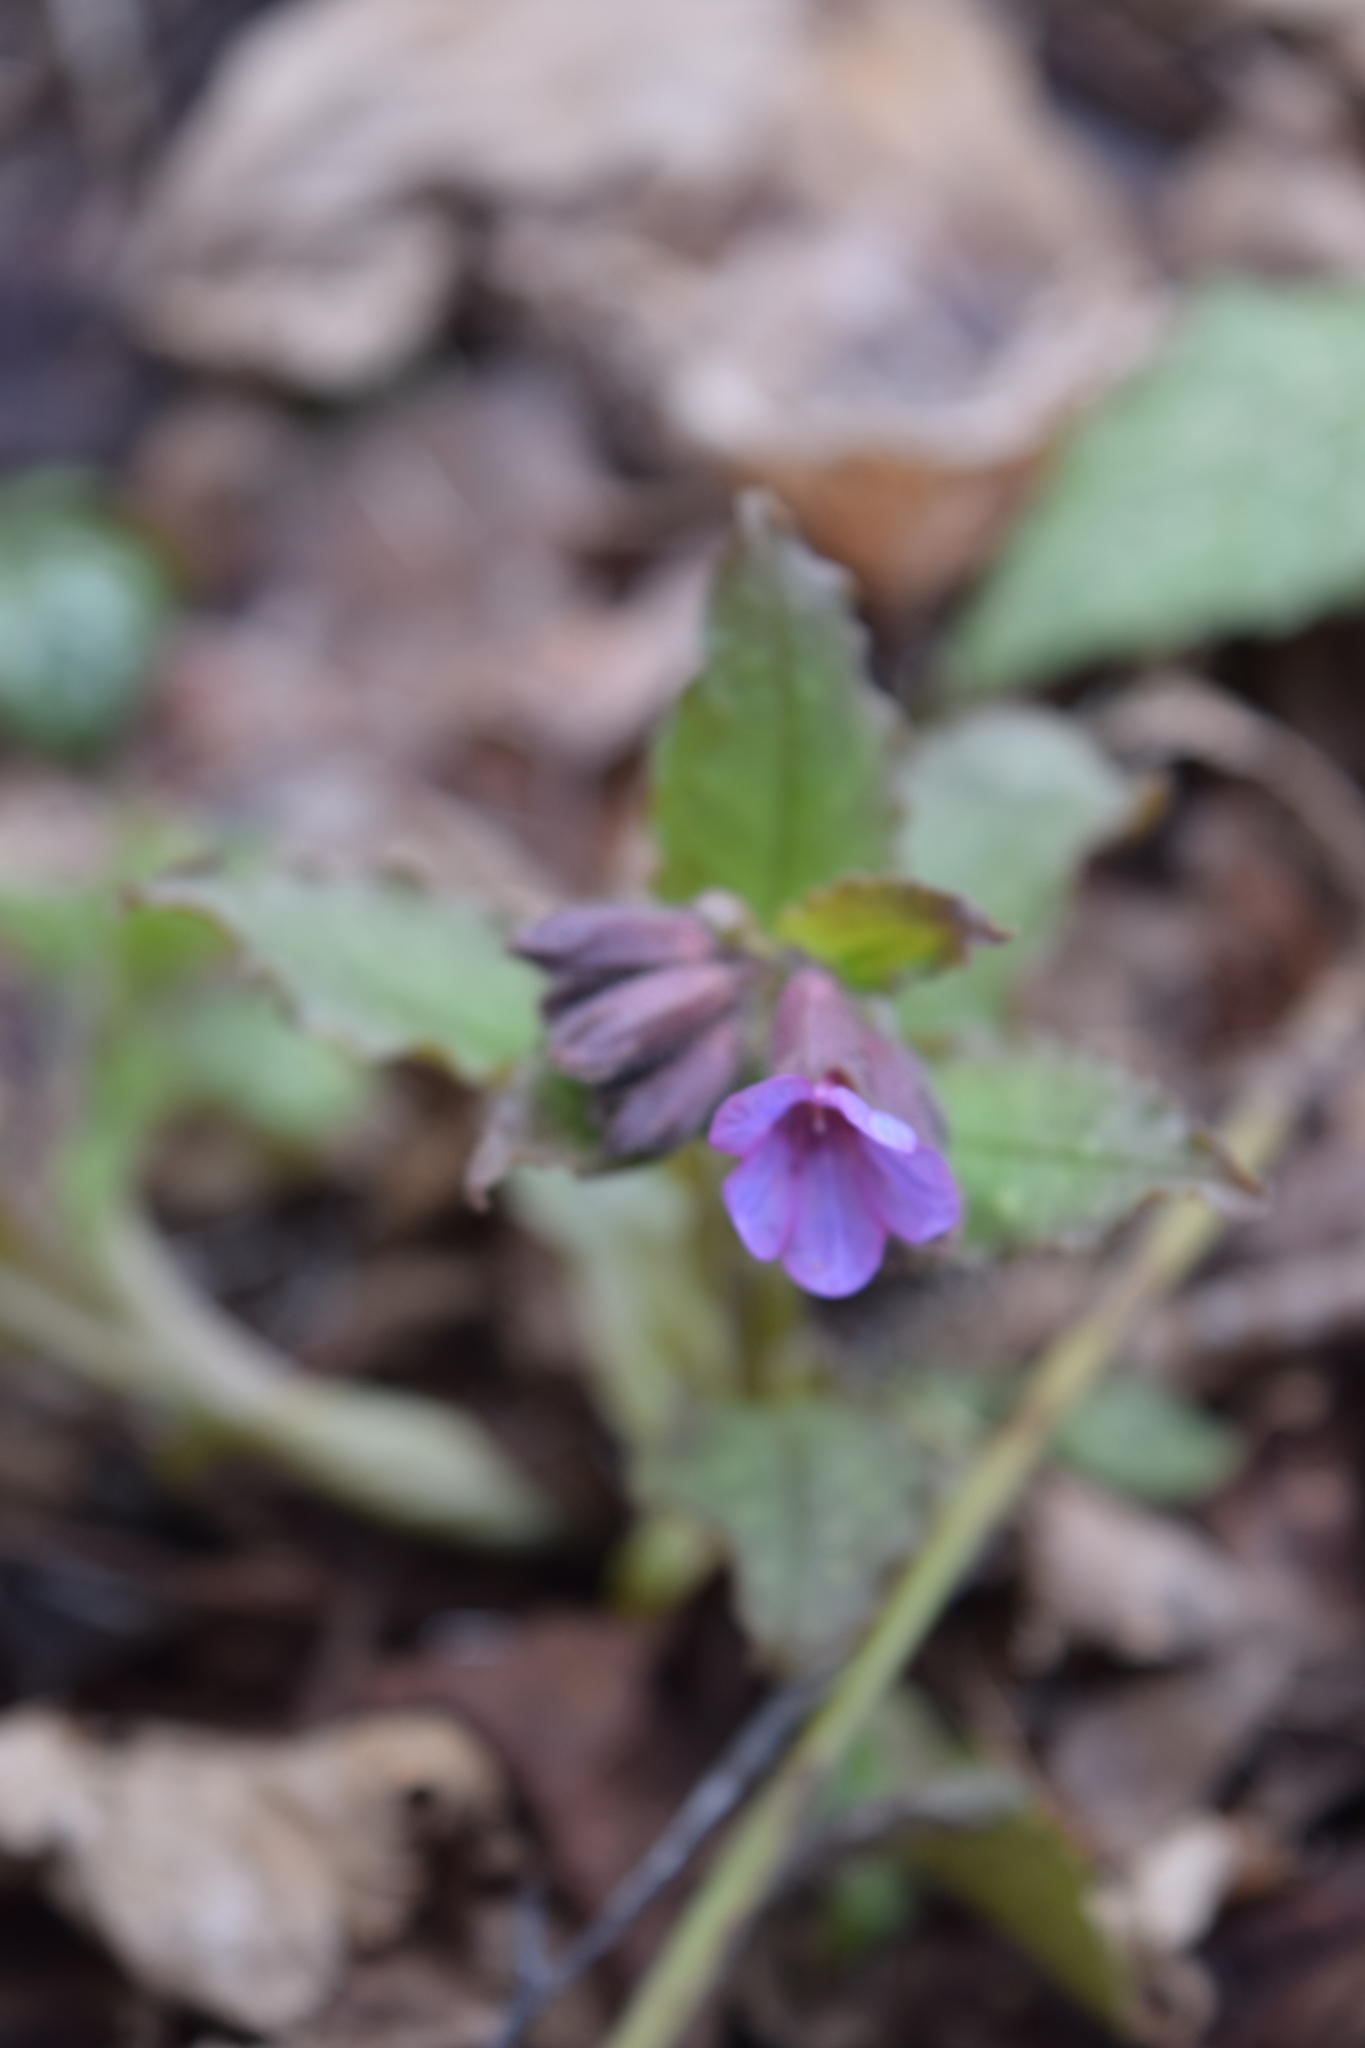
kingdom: Plantae
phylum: Tracheophyta
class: Magnoliopsida
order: Boraginales
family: Boraginaceae
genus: Pulmonaria
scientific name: Pulmonaria obscura
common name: Suffolk lungwort
